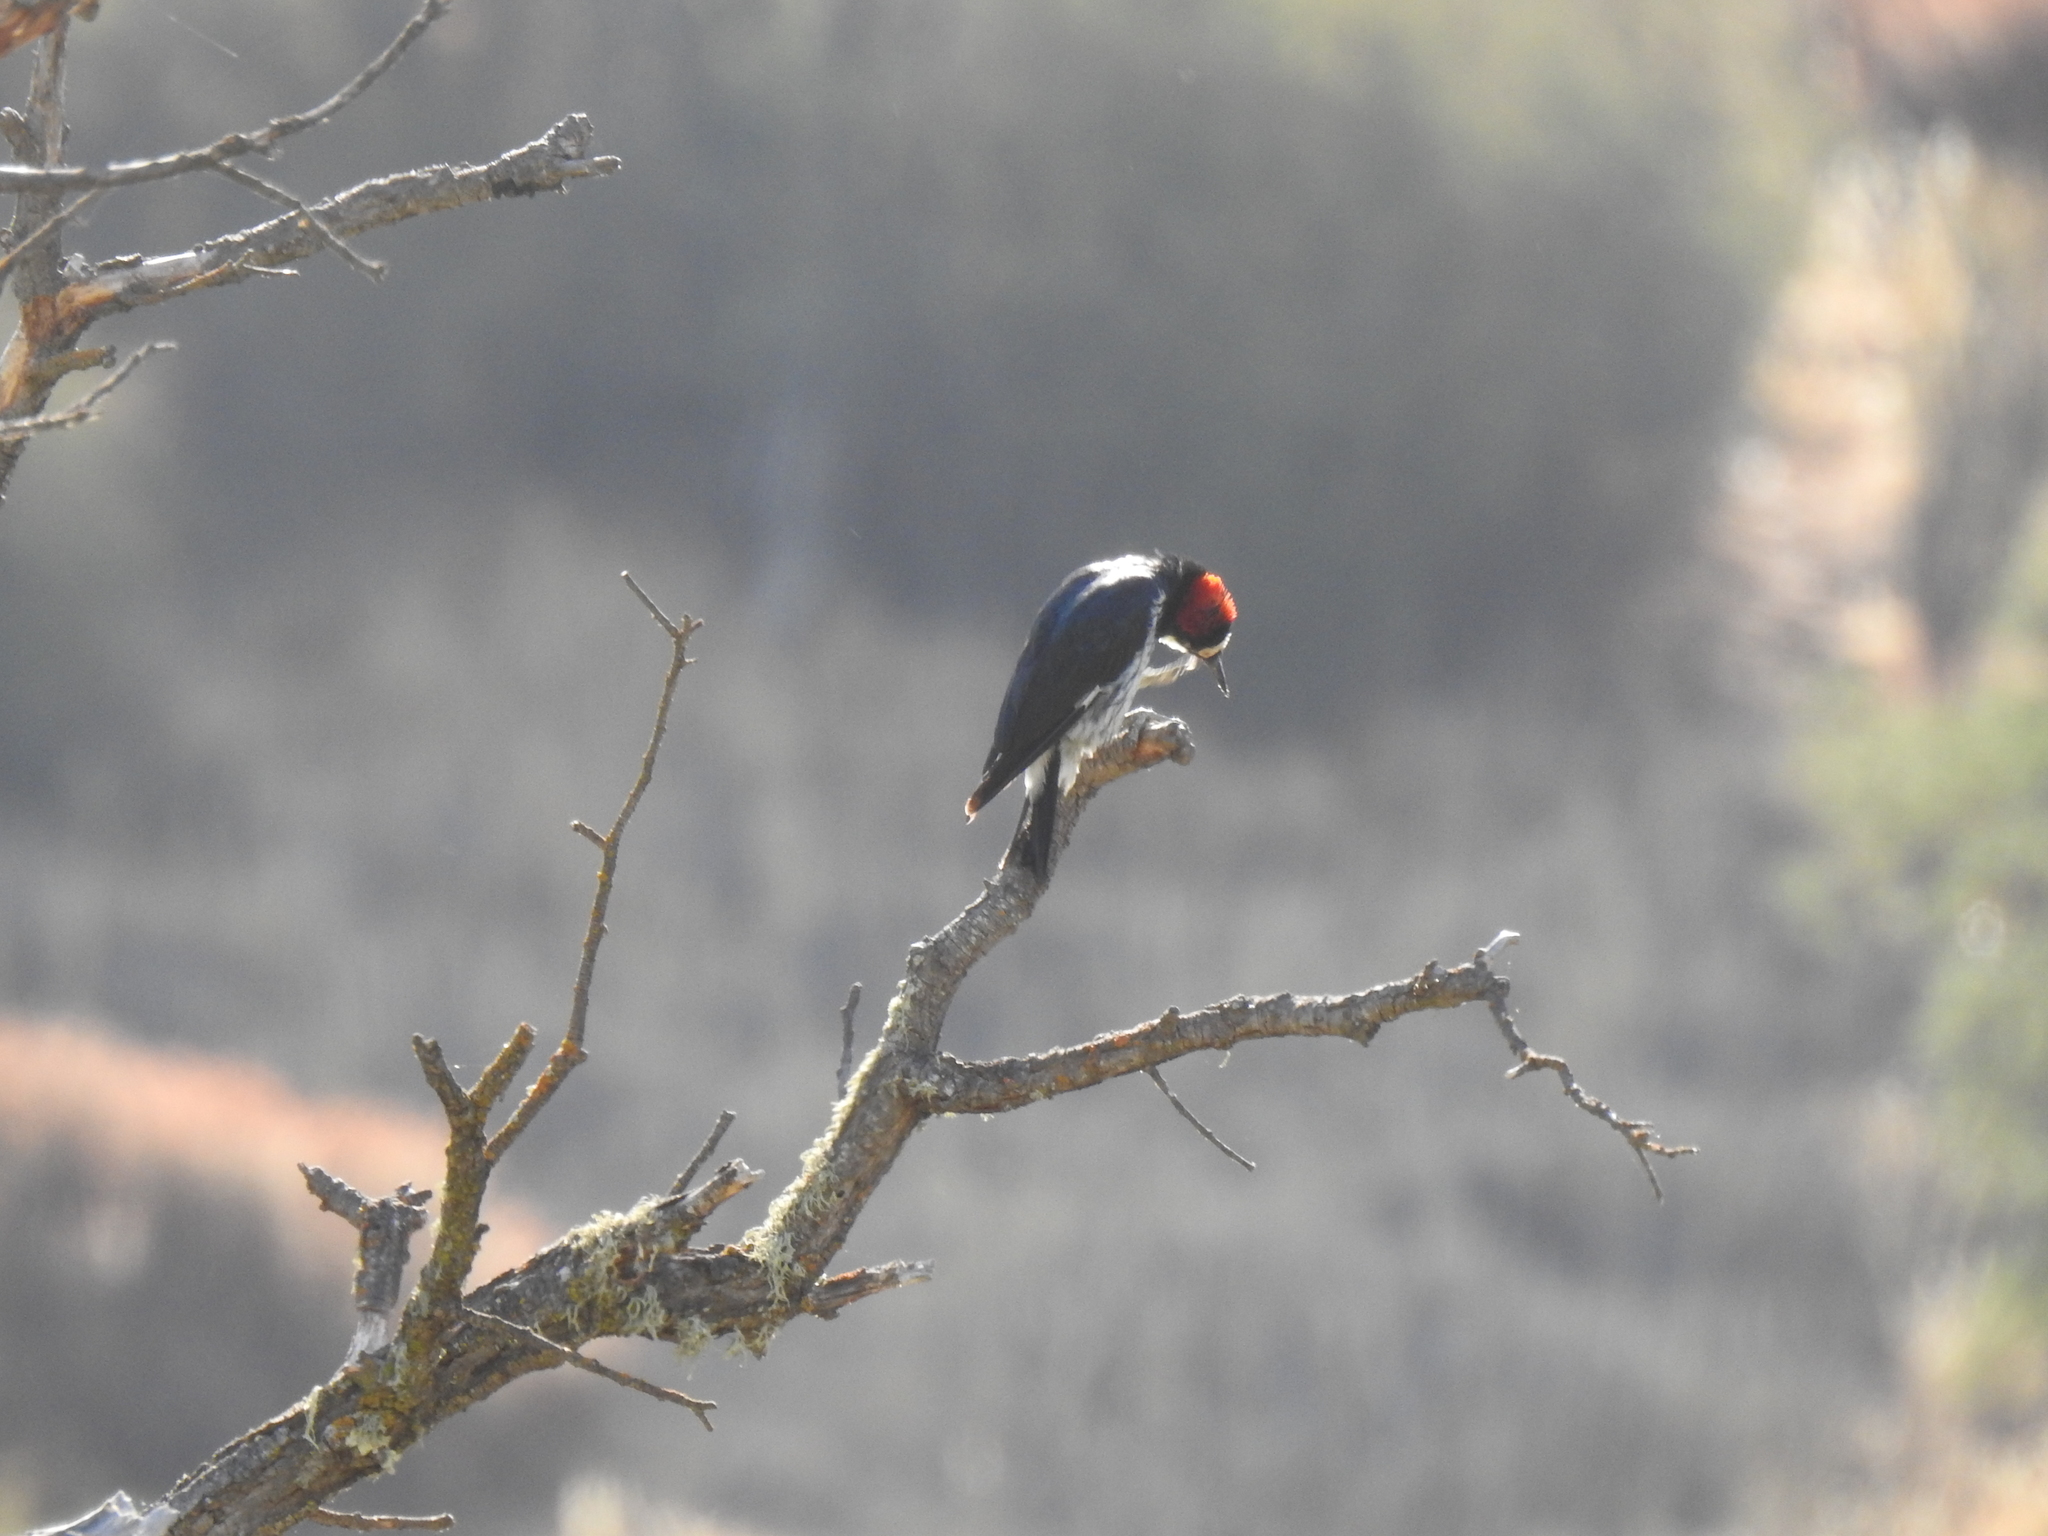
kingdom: Animalia
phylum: Chordata
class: Aves
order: Piciformes
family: Picidae
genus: Melanerpes
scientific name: Melanerpes formicivorus
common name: Acorn woodpecker
